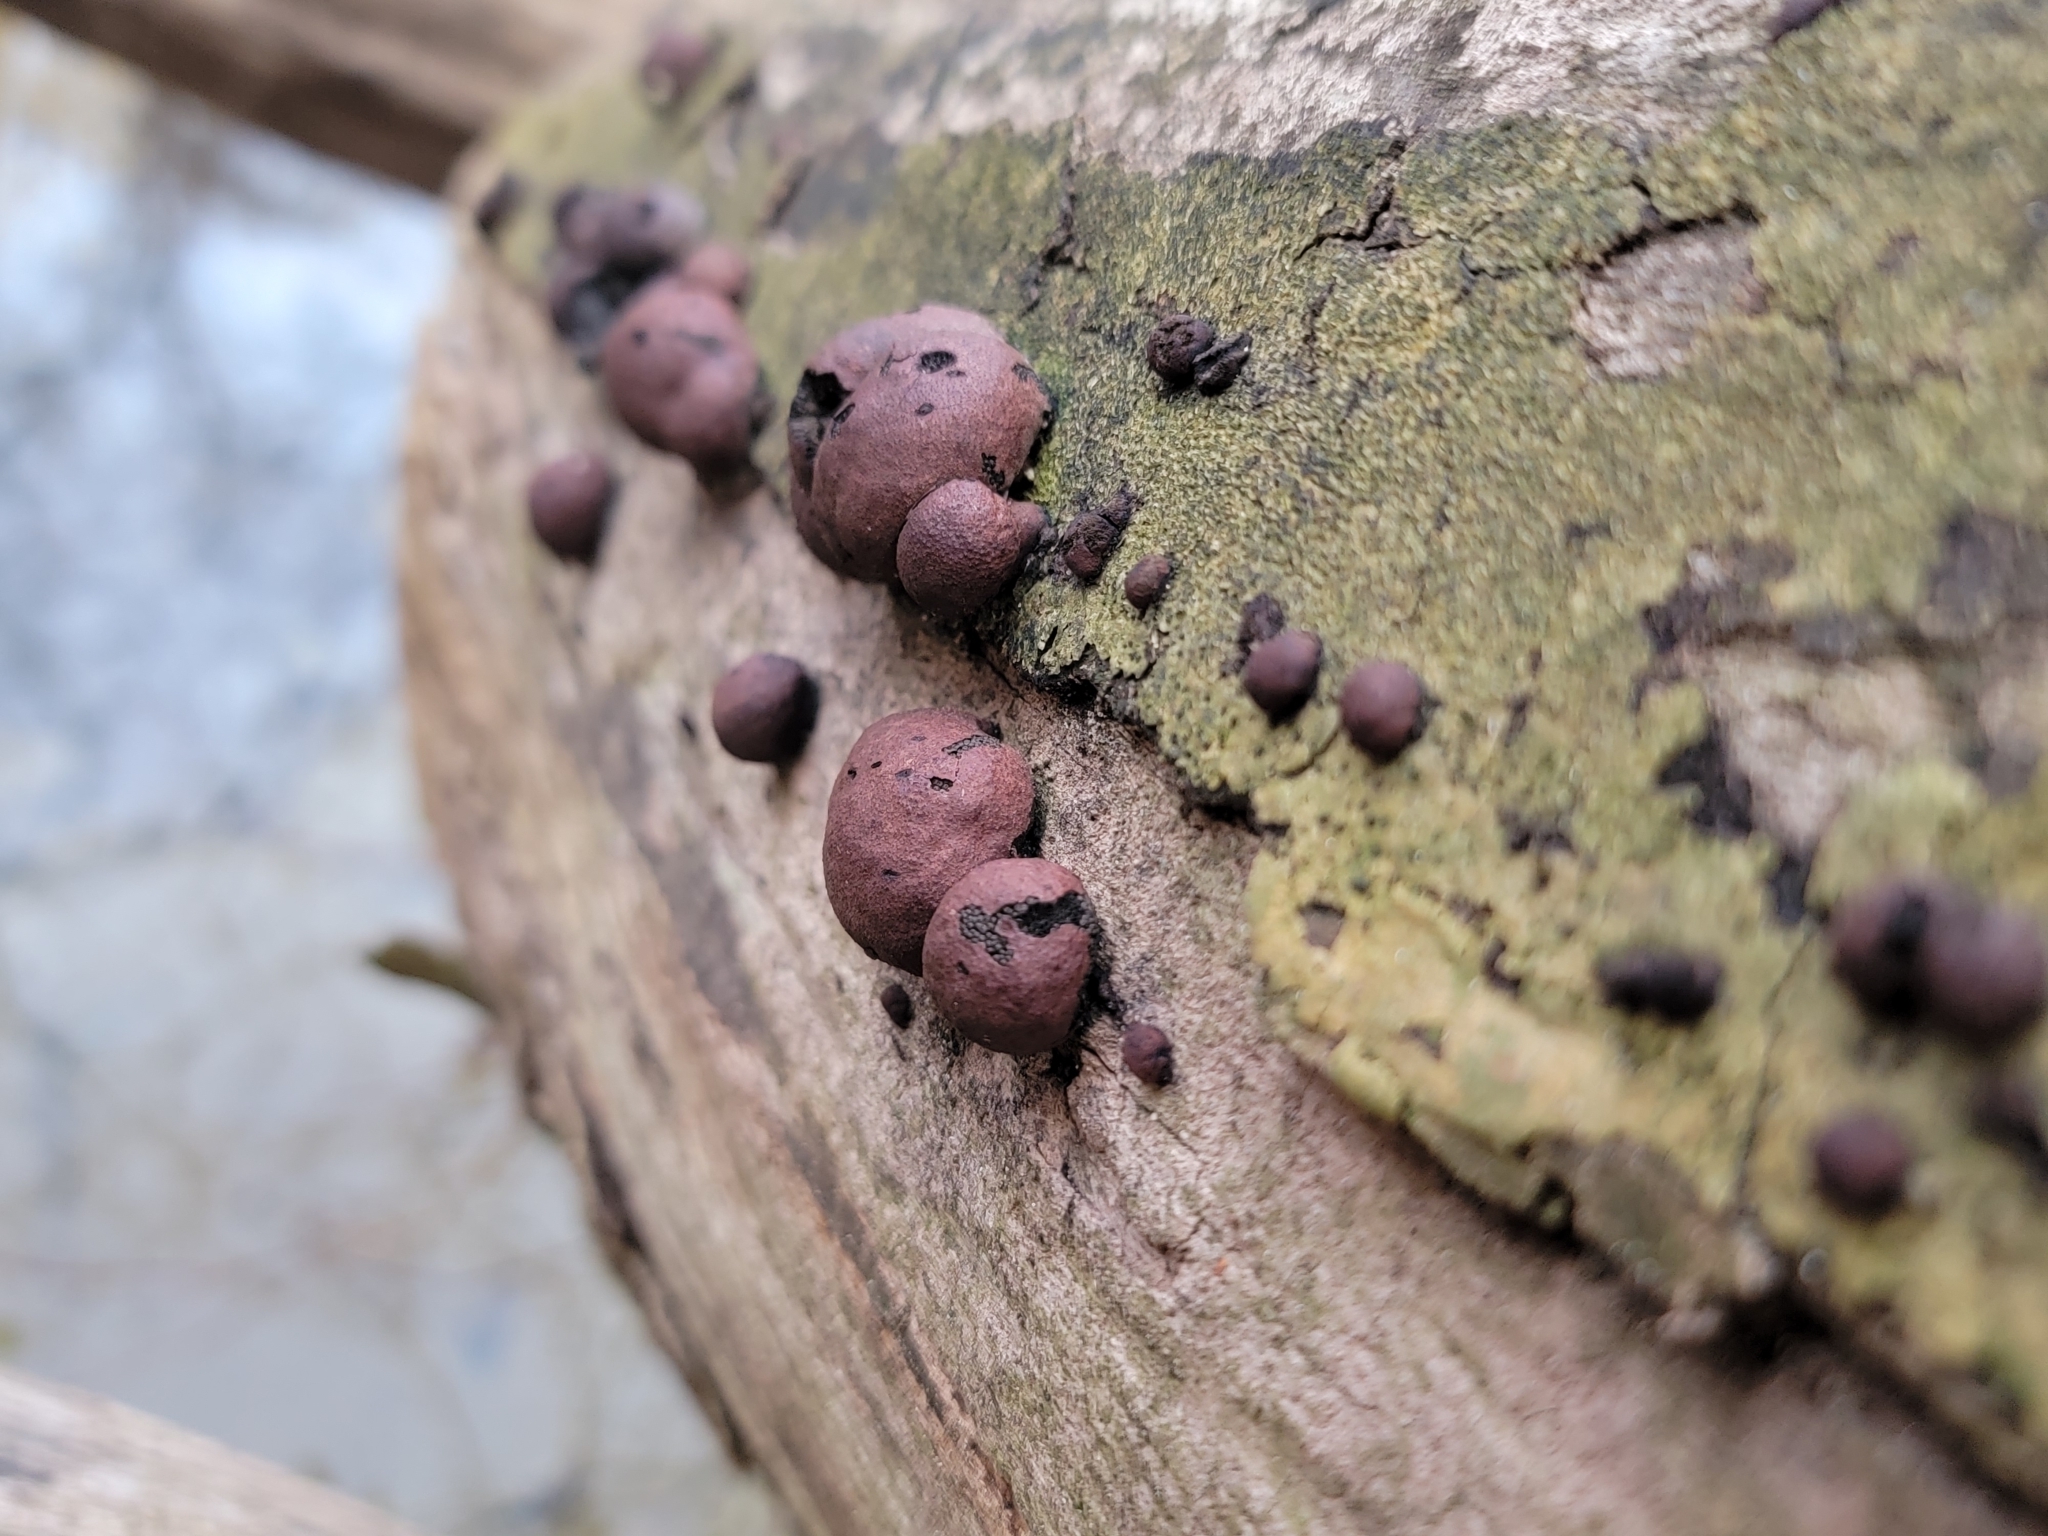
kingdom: Fungi
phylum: Ascomycota
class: Sordariomycetes
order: Xylariales
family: Hypoxylaceae
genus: Daldinia
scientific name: Daldinia childiae
